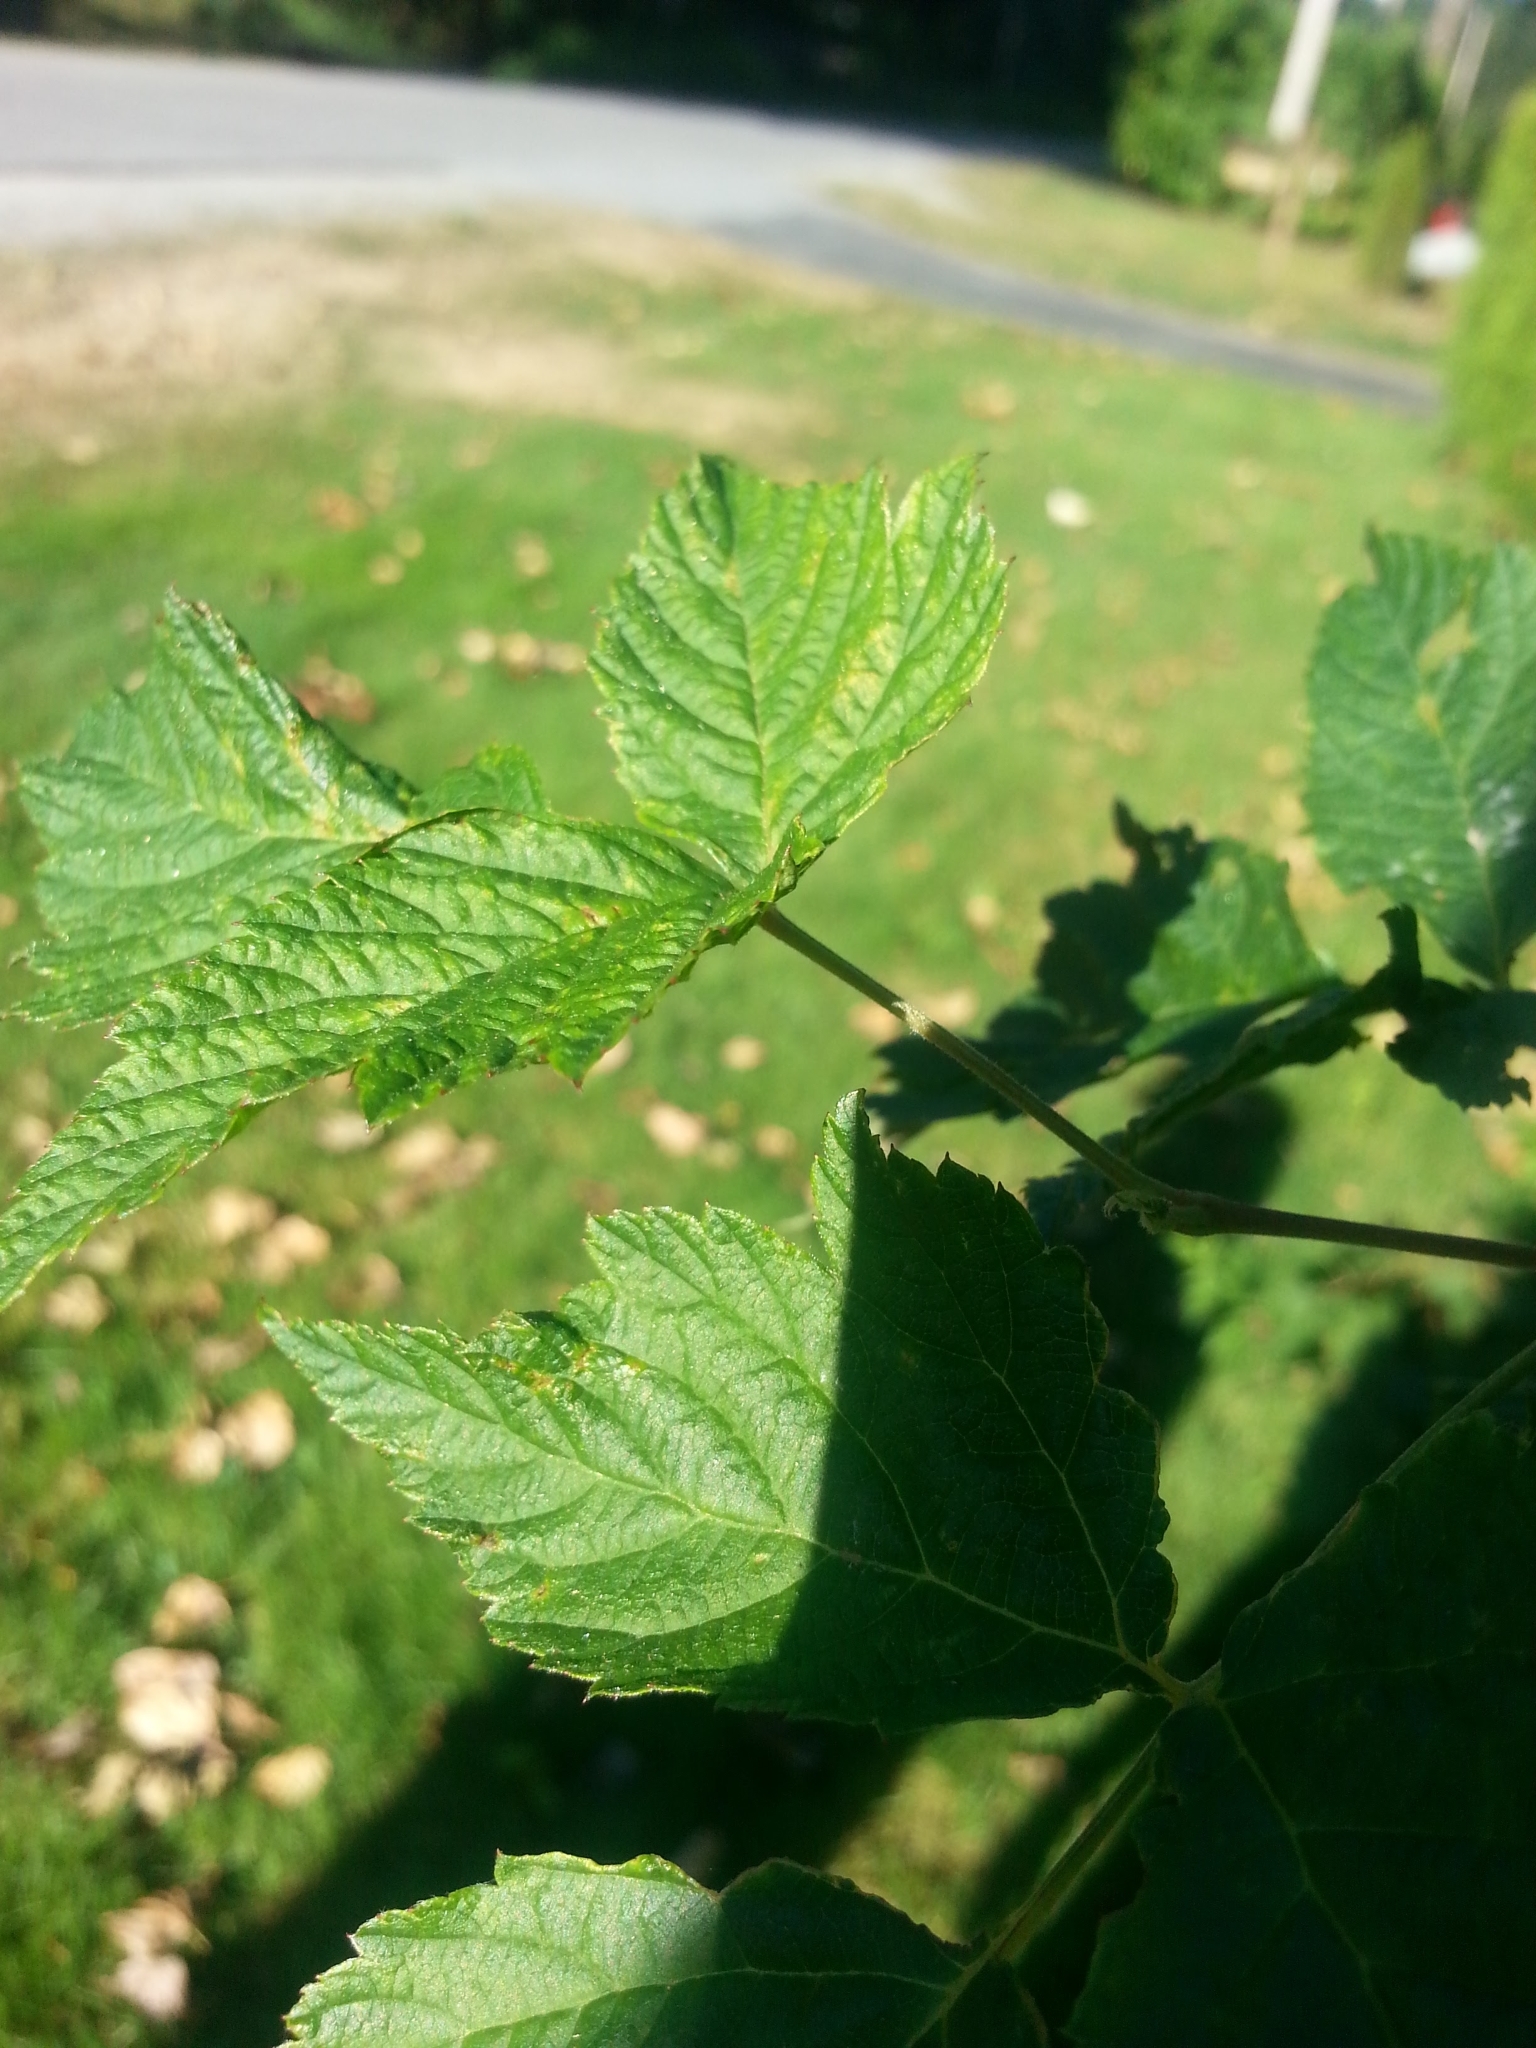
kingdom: Plantae
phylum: Tracheophyta
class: Magnoliopsida
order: Rosales
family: Rosaceae
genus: Rubus
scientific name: Rubus bifrons
